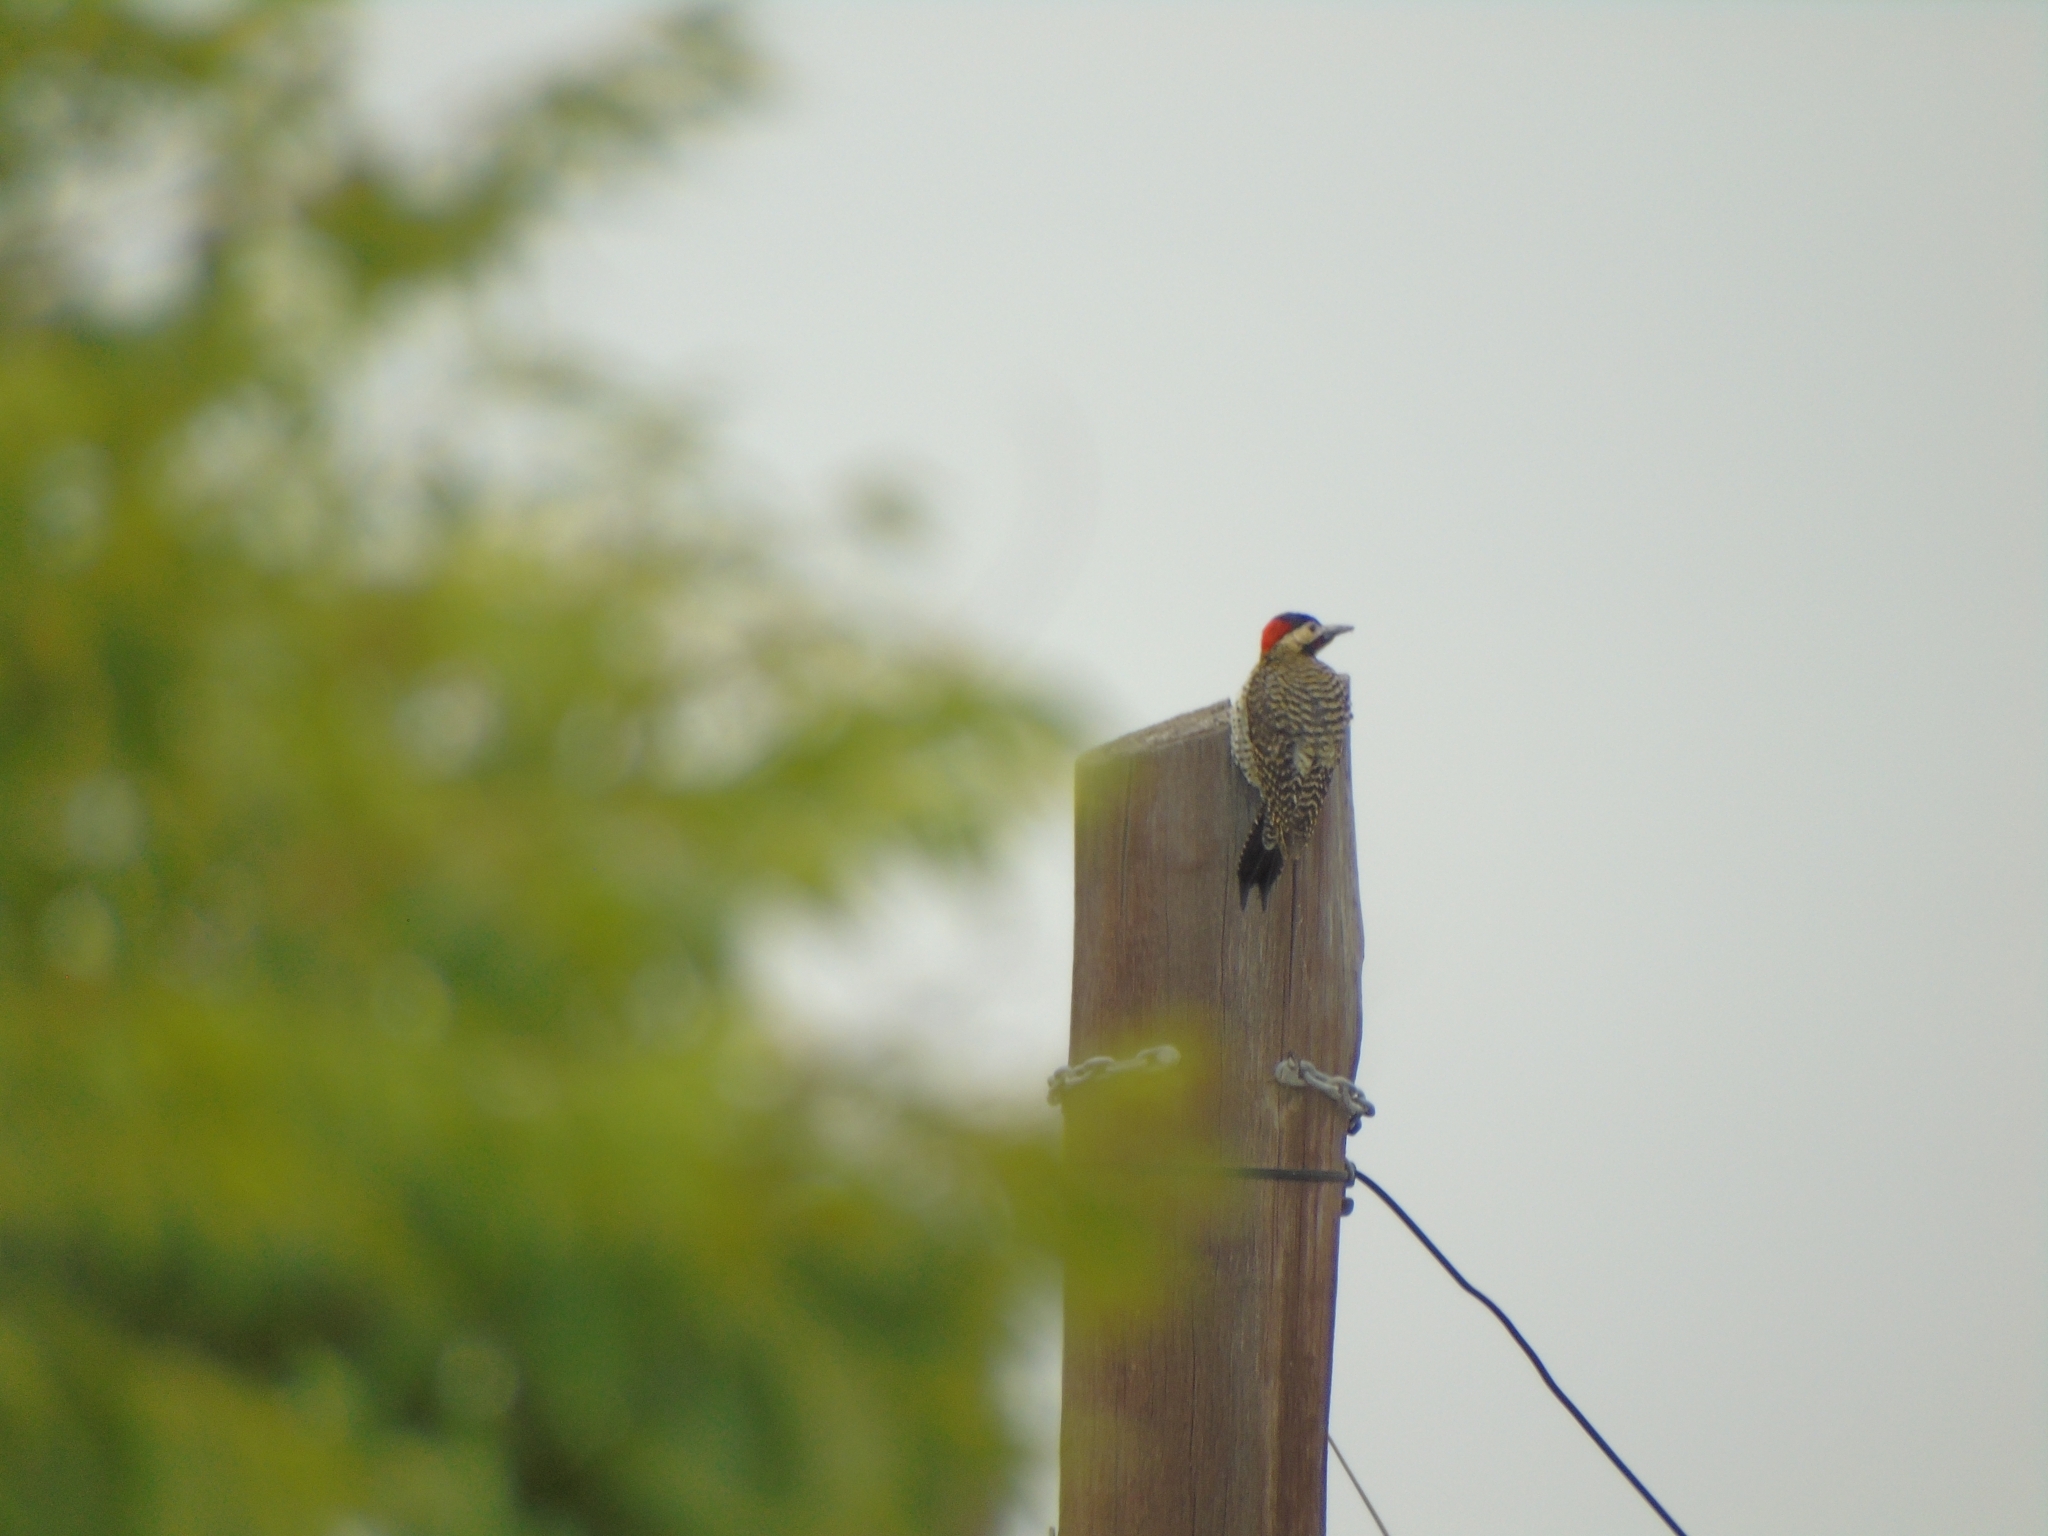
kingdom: Animalia
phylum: Chordata
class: Aves
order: Piciformes
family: Picidae
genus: Colaptes
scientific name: Colaptes melanochloros
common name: Green-barred woodpecker
